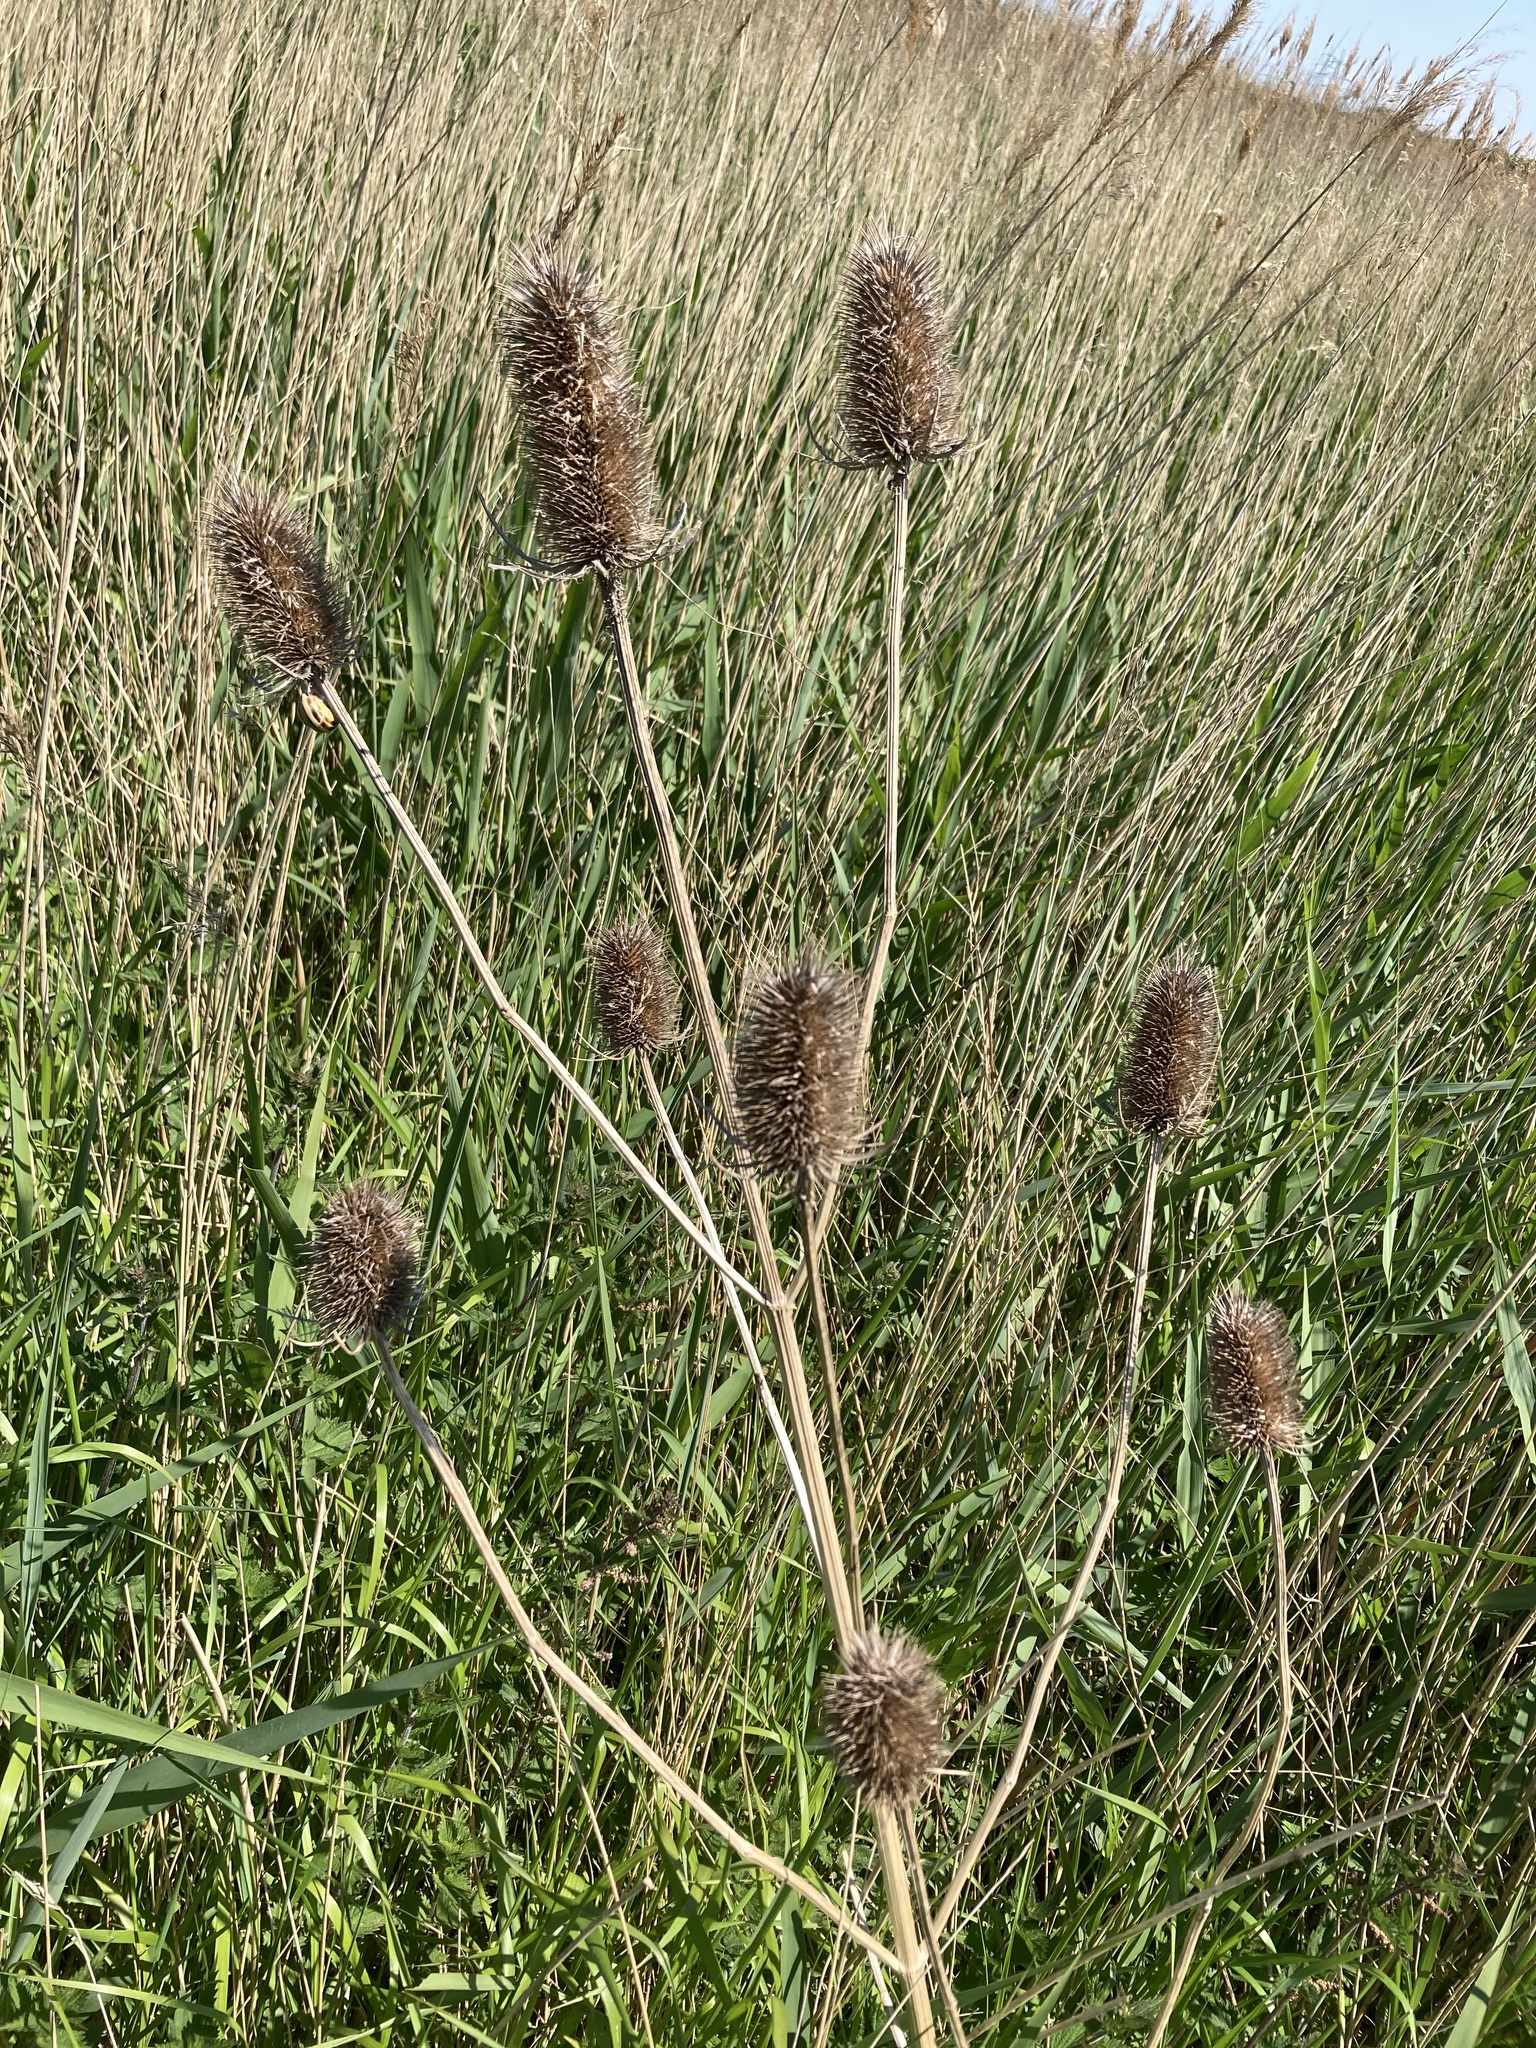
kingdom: Plantae
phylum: Tracheophyta
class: Magnoliopsida
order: Dipsacales
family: Caprifoliaceae
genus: Dipsacus
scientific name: Dipsacus fullonum
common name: Teasel
